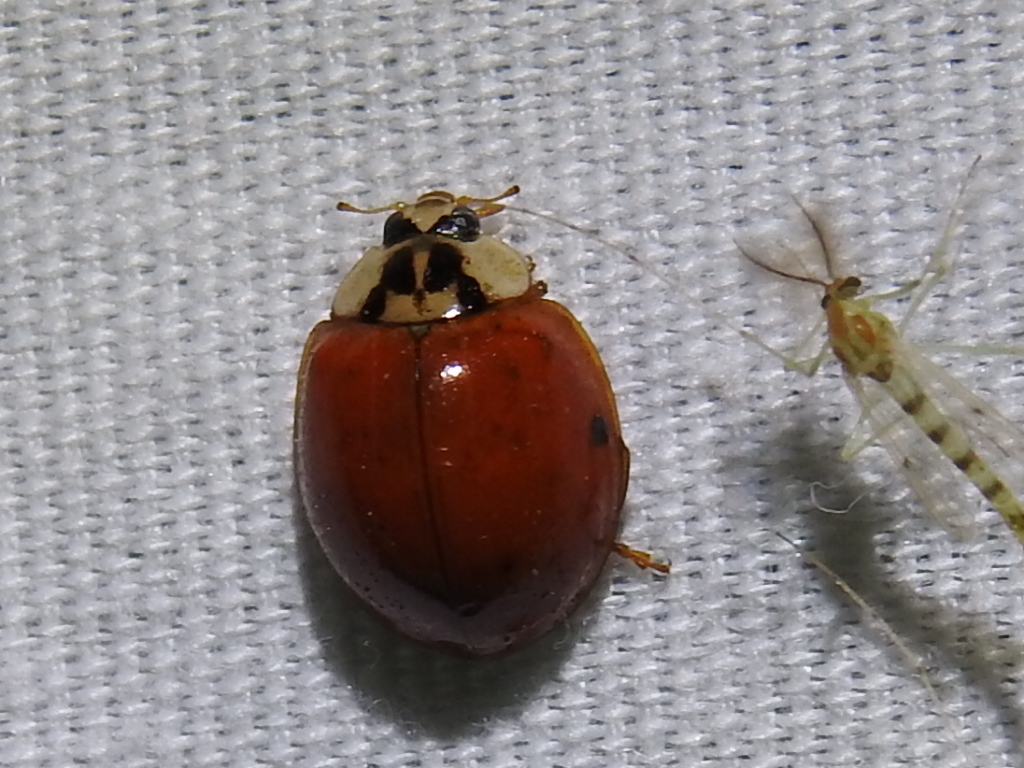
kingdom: Animalia
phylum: Arthropoda
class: Insecta
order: Coleoptera
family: Coccinellidae
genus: Harmonia
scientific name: Harmonia axyridis
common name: Harlequin ladybird
